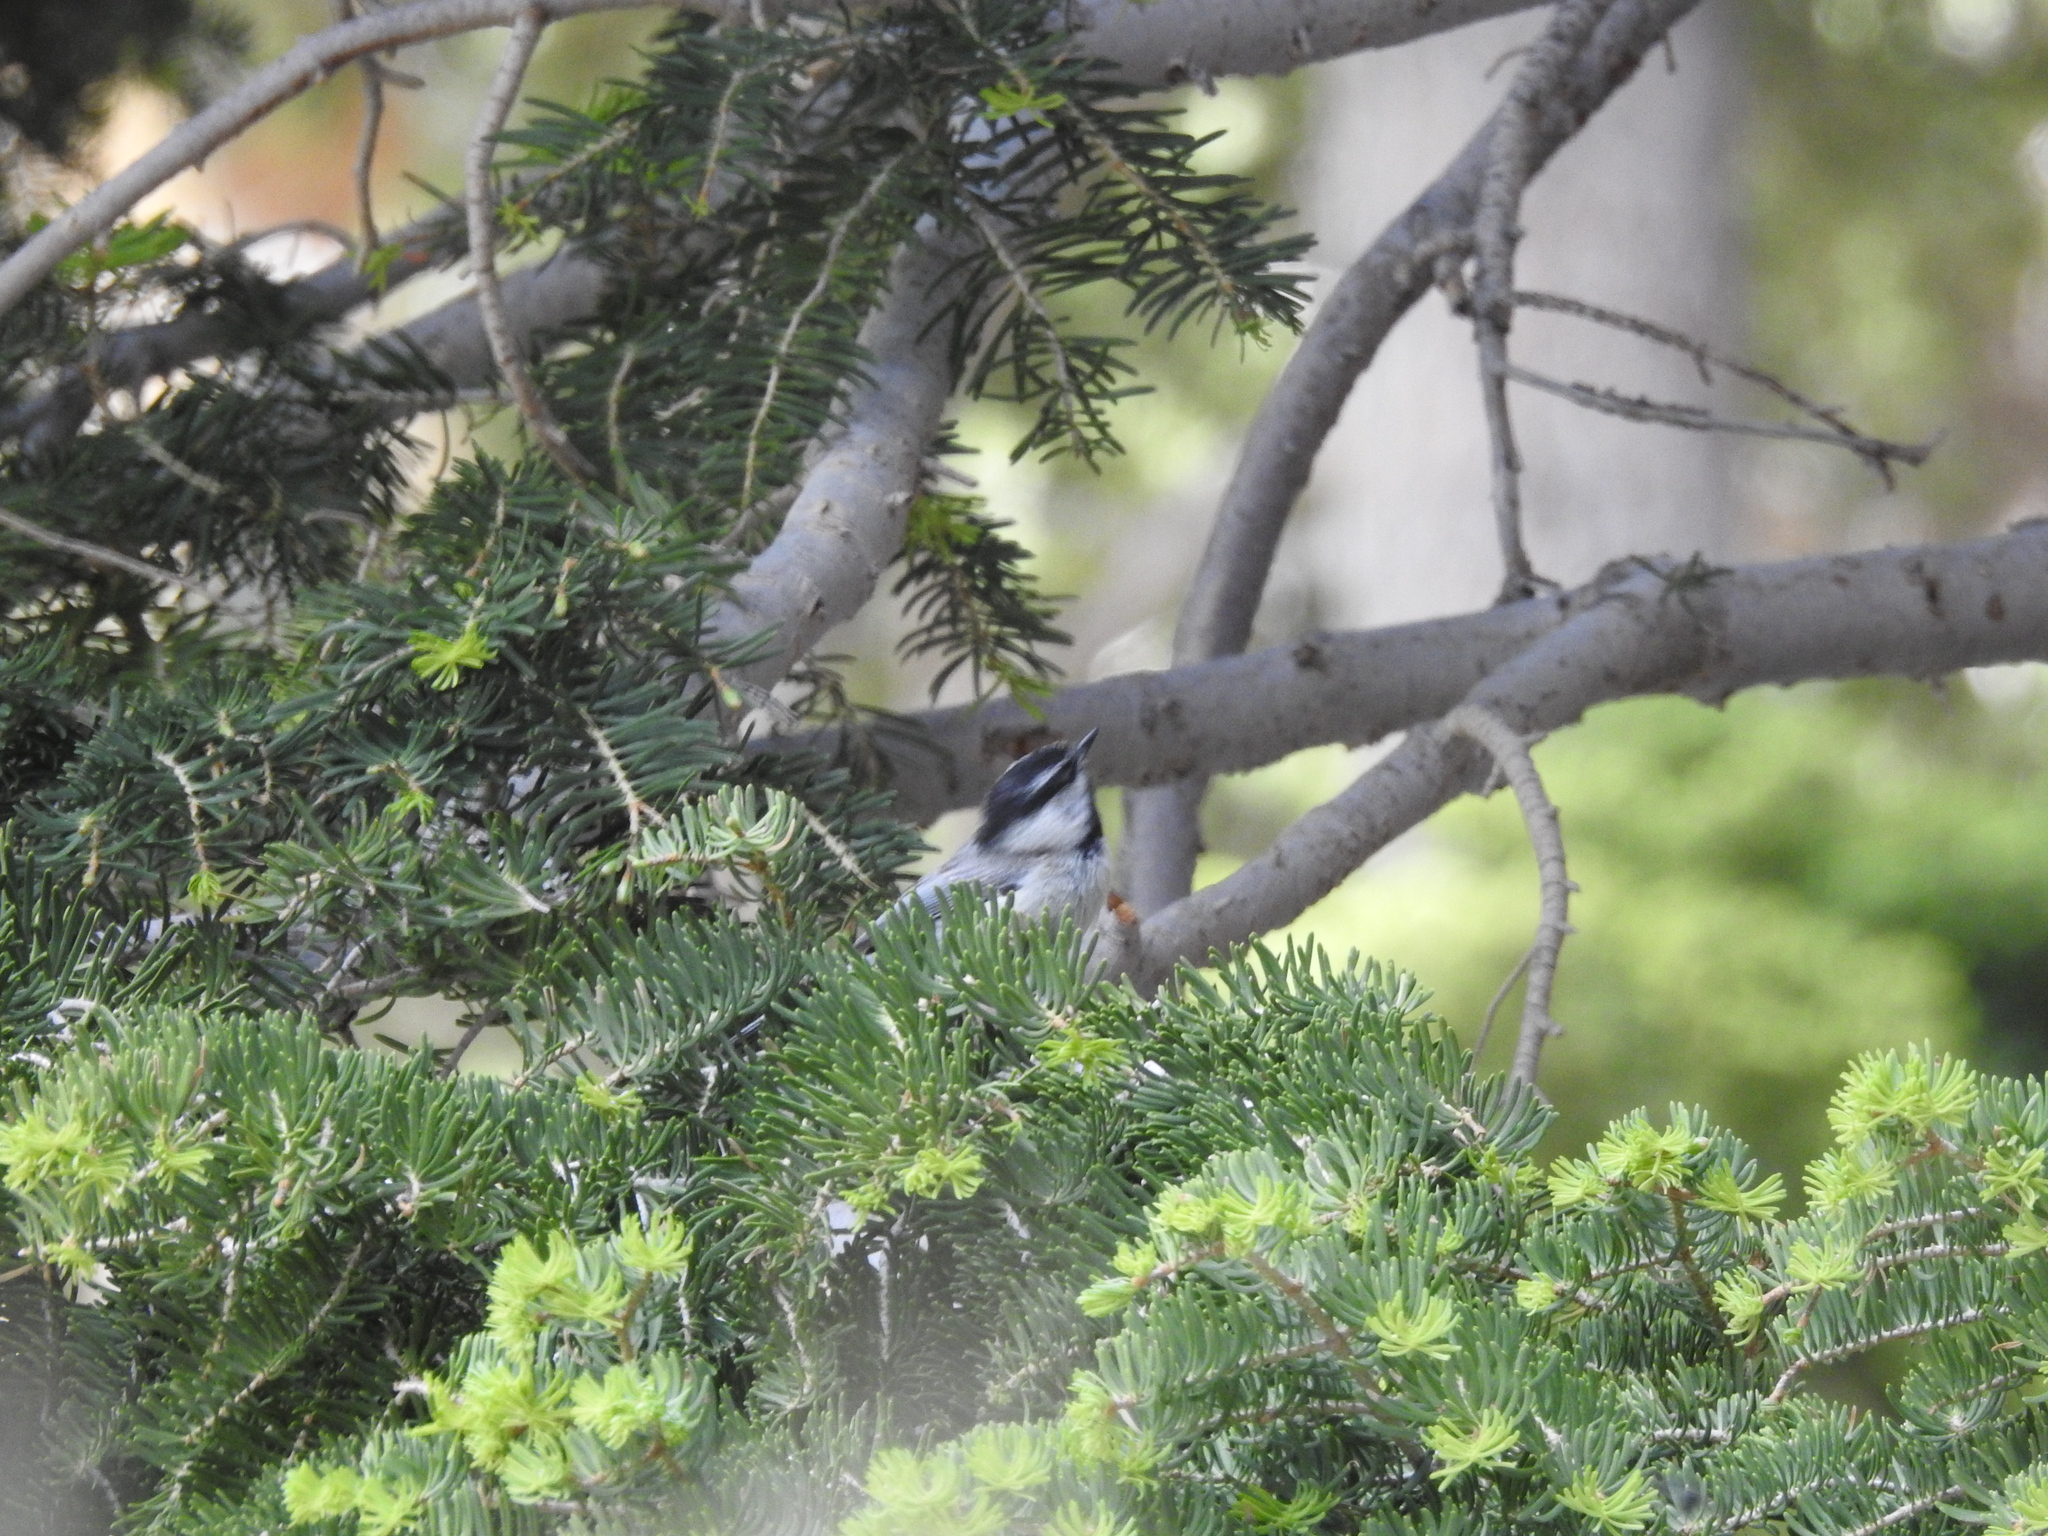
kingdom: Animalia
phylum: Chordata
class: Aves
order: Passeriformes
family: Paridae
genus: Poecile
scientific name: Poecile gambeli
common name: Mountain chickadee
